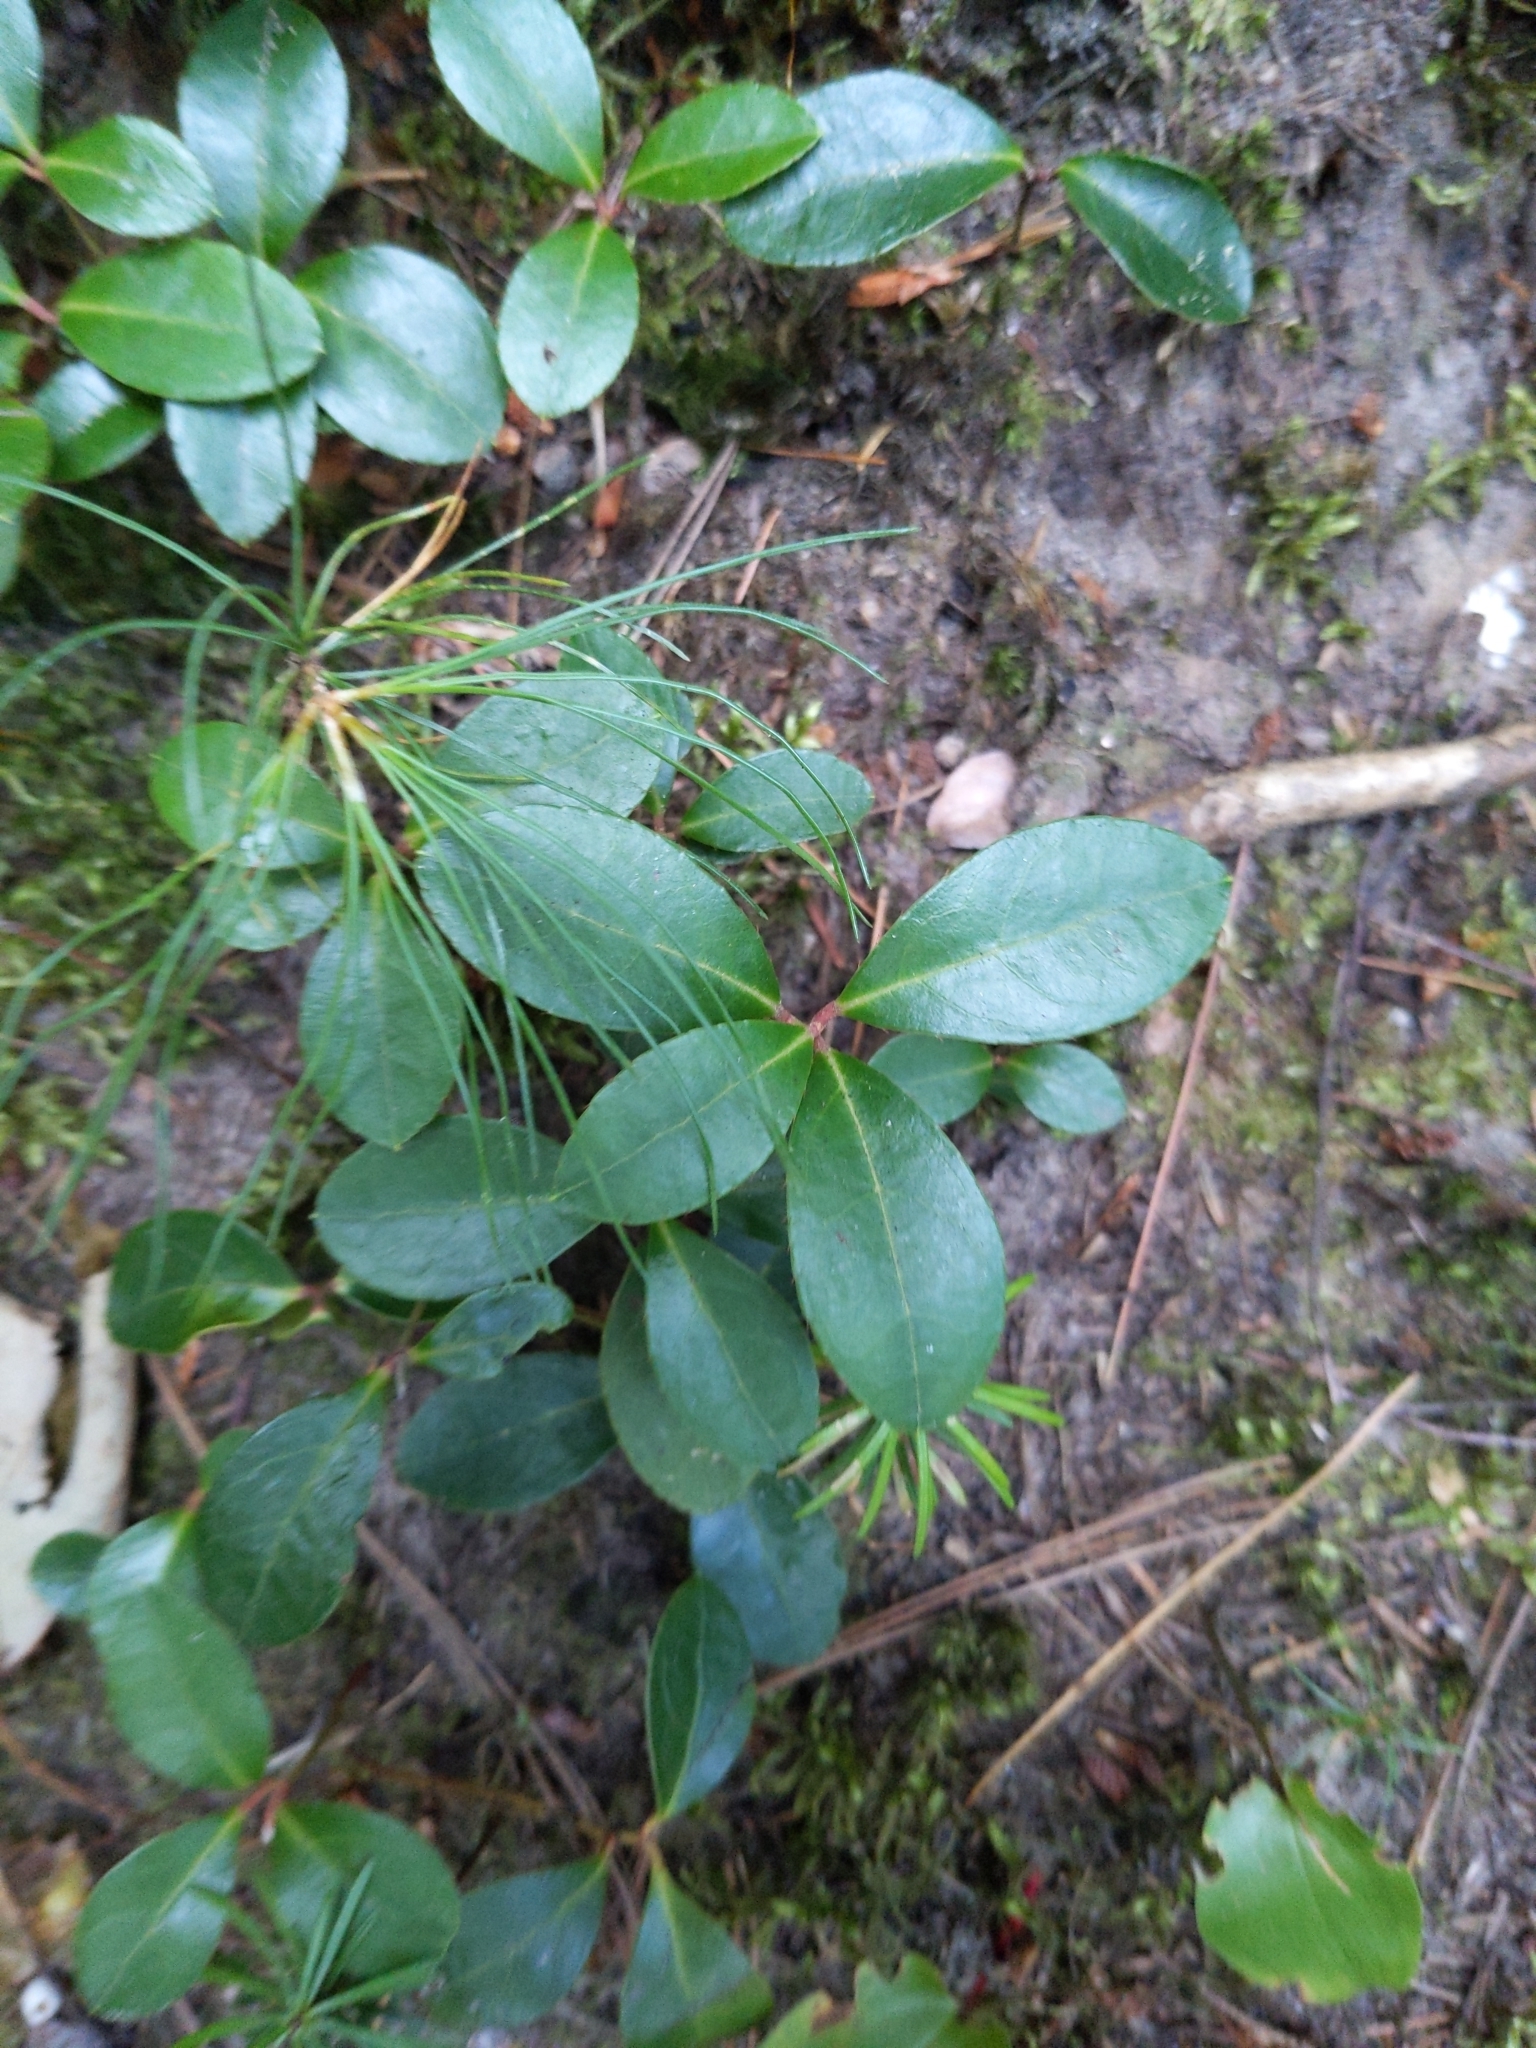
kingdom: Plantae
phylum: Tracheophyta
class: Magnoliopsida
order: Ericales
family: Ericaceae
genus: Gaultheria
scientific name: Gaultheria procumbens
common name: Checkerberry
